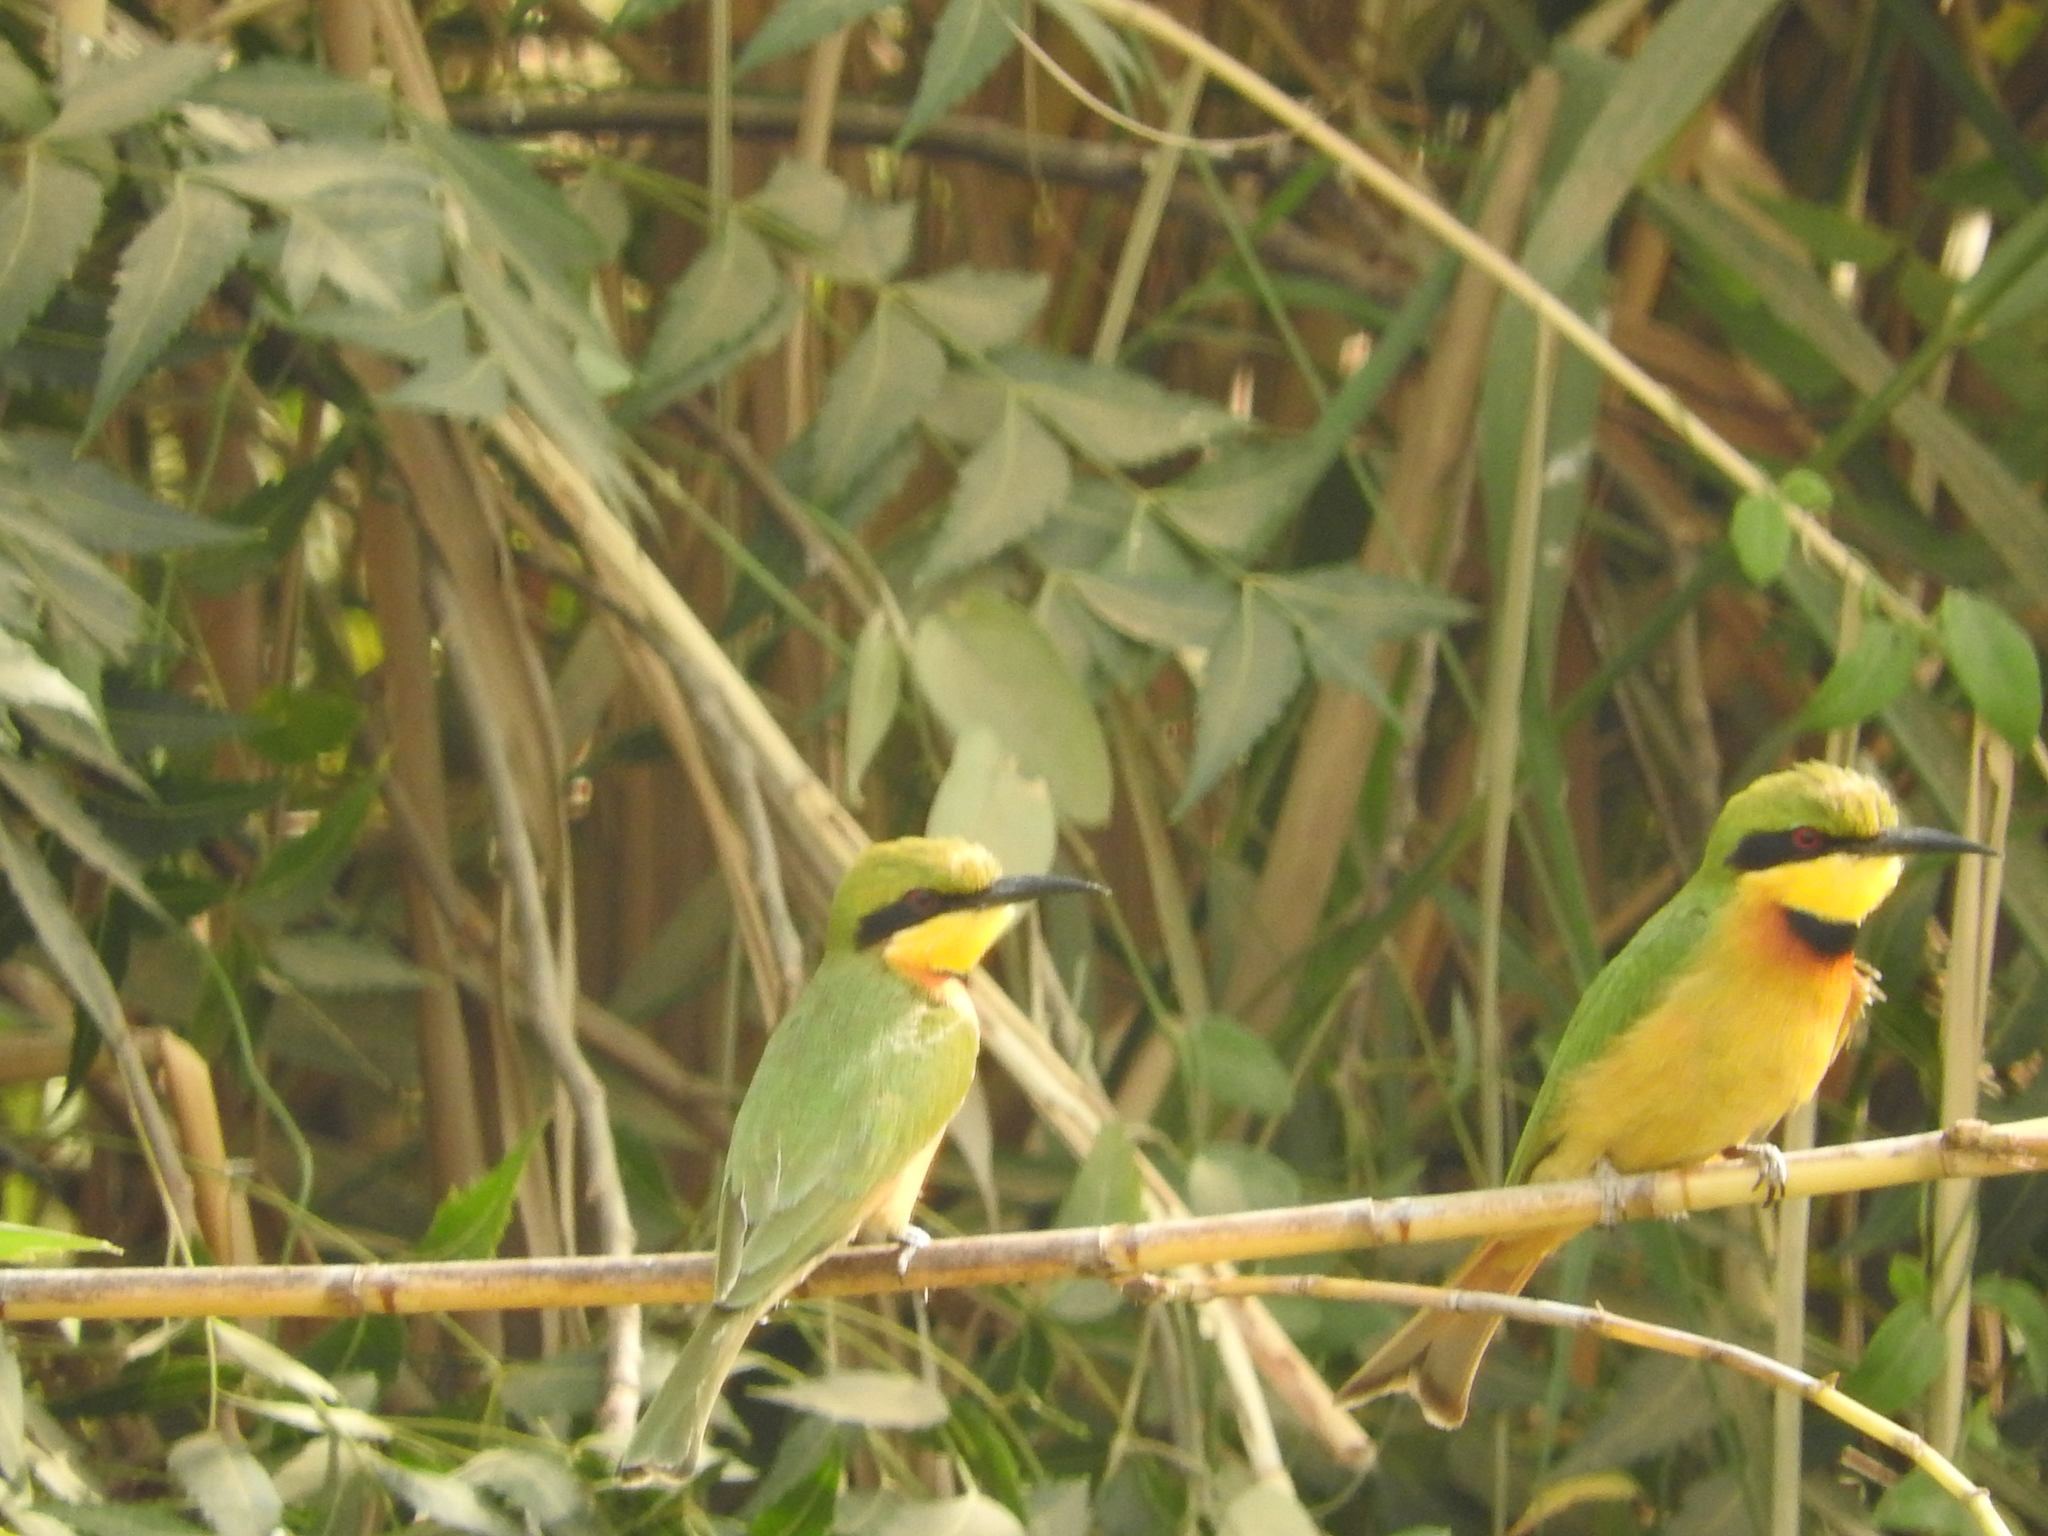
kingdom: Animalia
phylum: Chordata
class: Aves
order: Coraciiformes
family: Meropidae
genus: Merops
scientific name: Merops pusillus
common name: Little bee-eater
